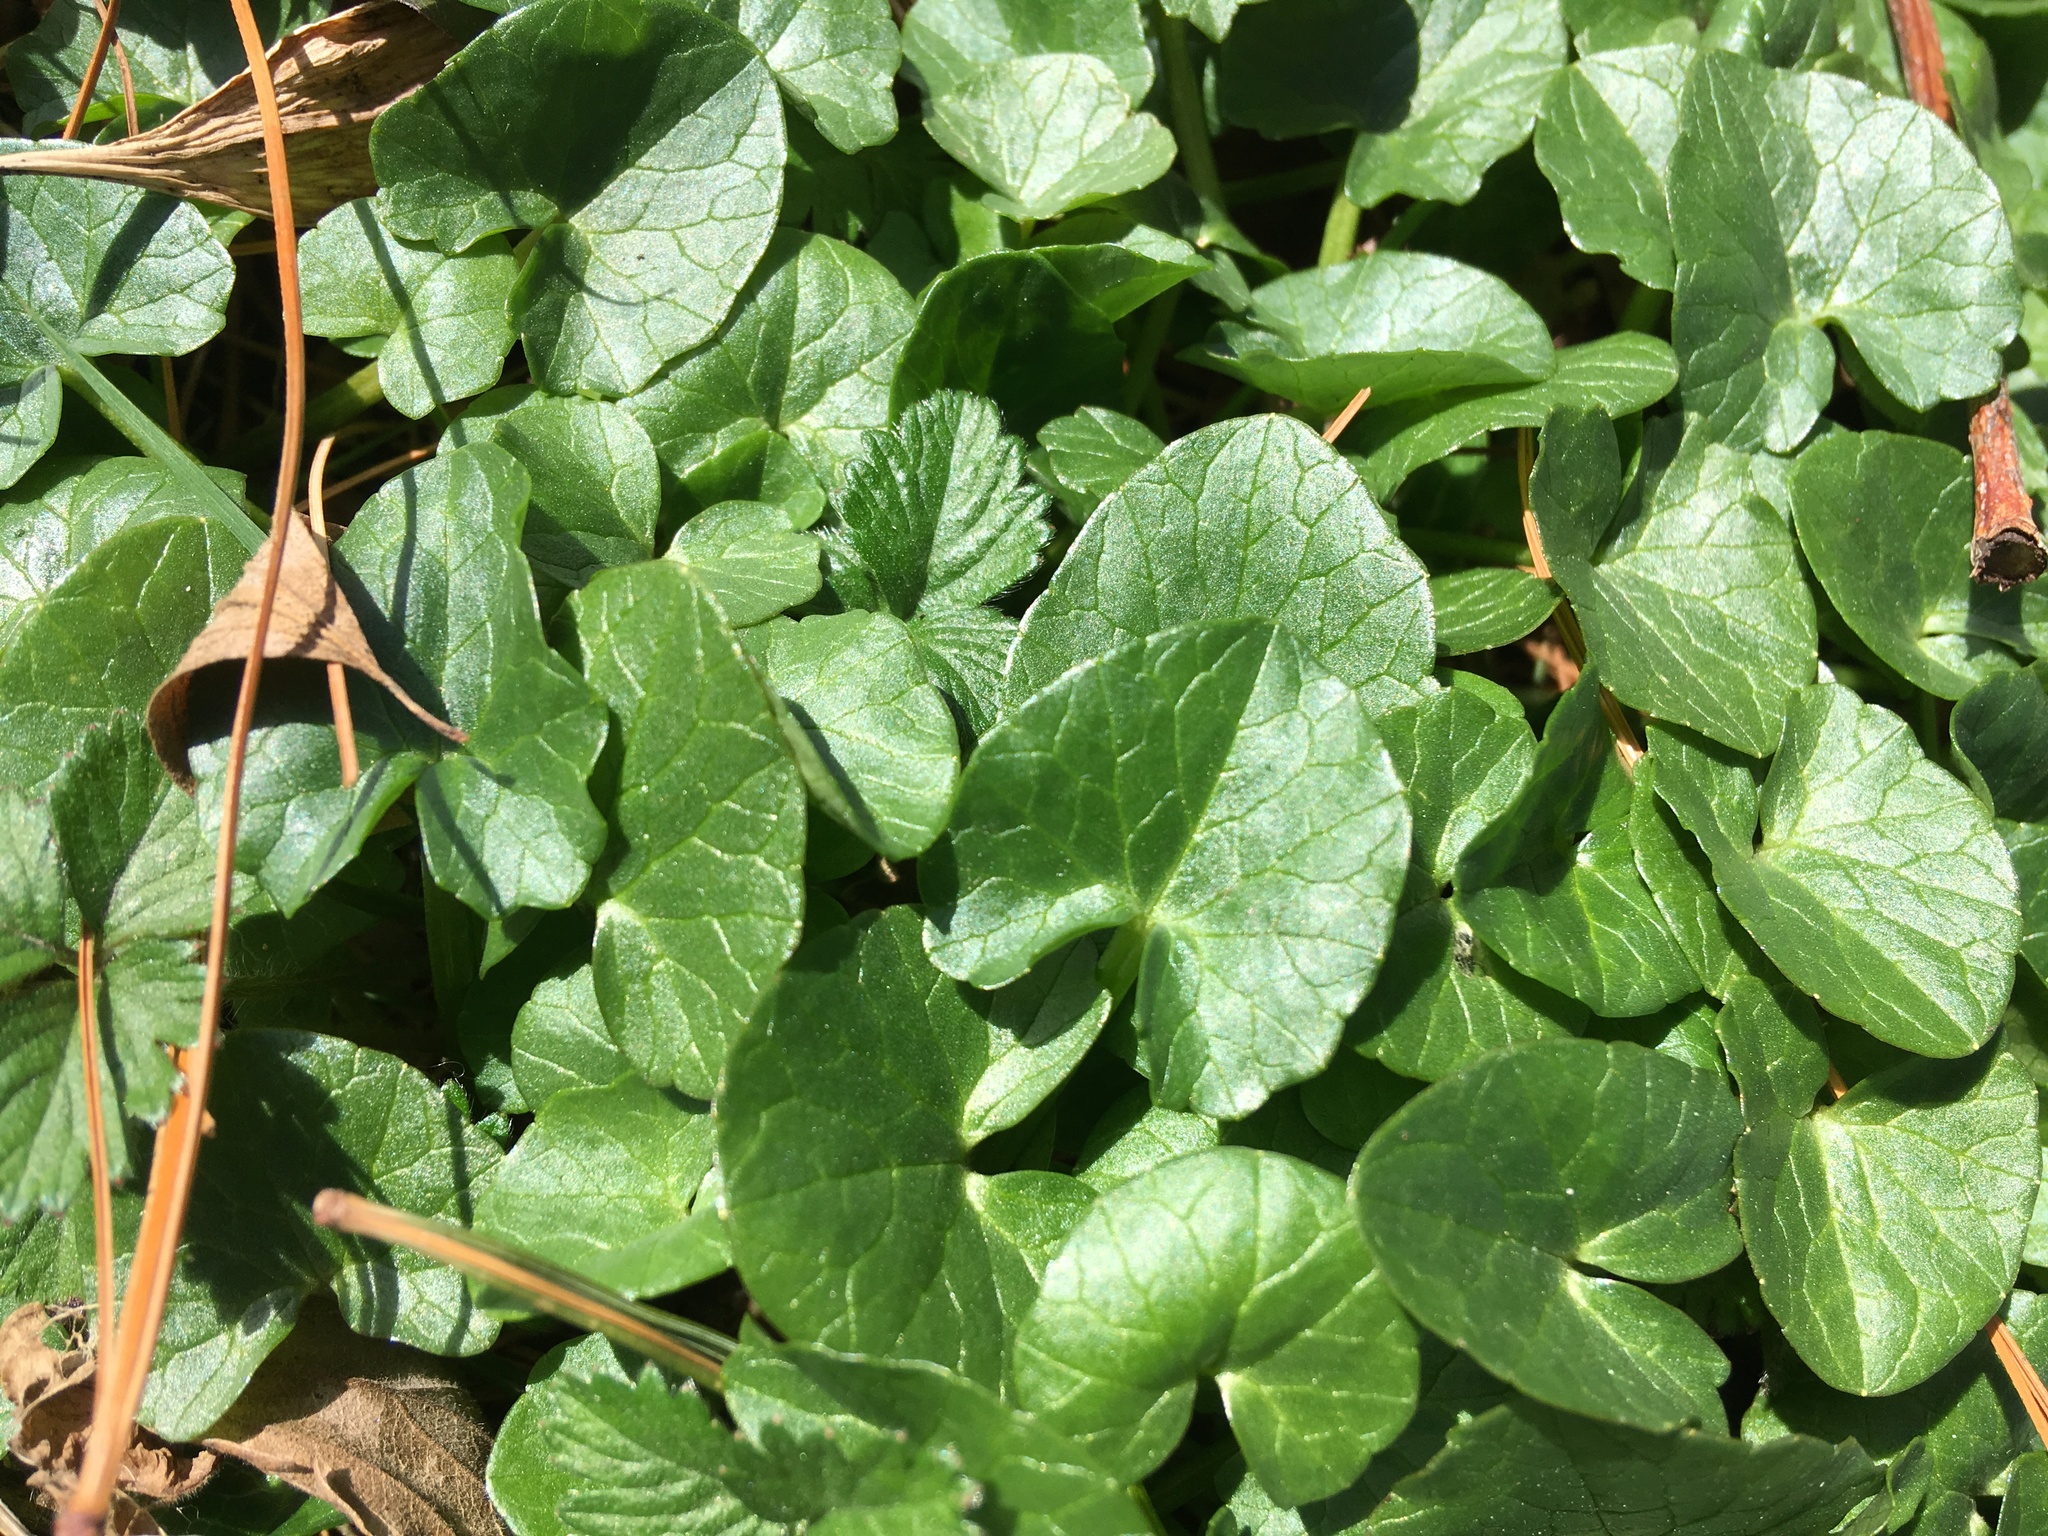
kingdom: Plantae
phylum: Tracheophyta
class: Magnoliopsida
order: Ranunculales
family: Ranunculaceae
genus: Ficaria
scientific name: Ficaria verna
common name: Lesser celandine
